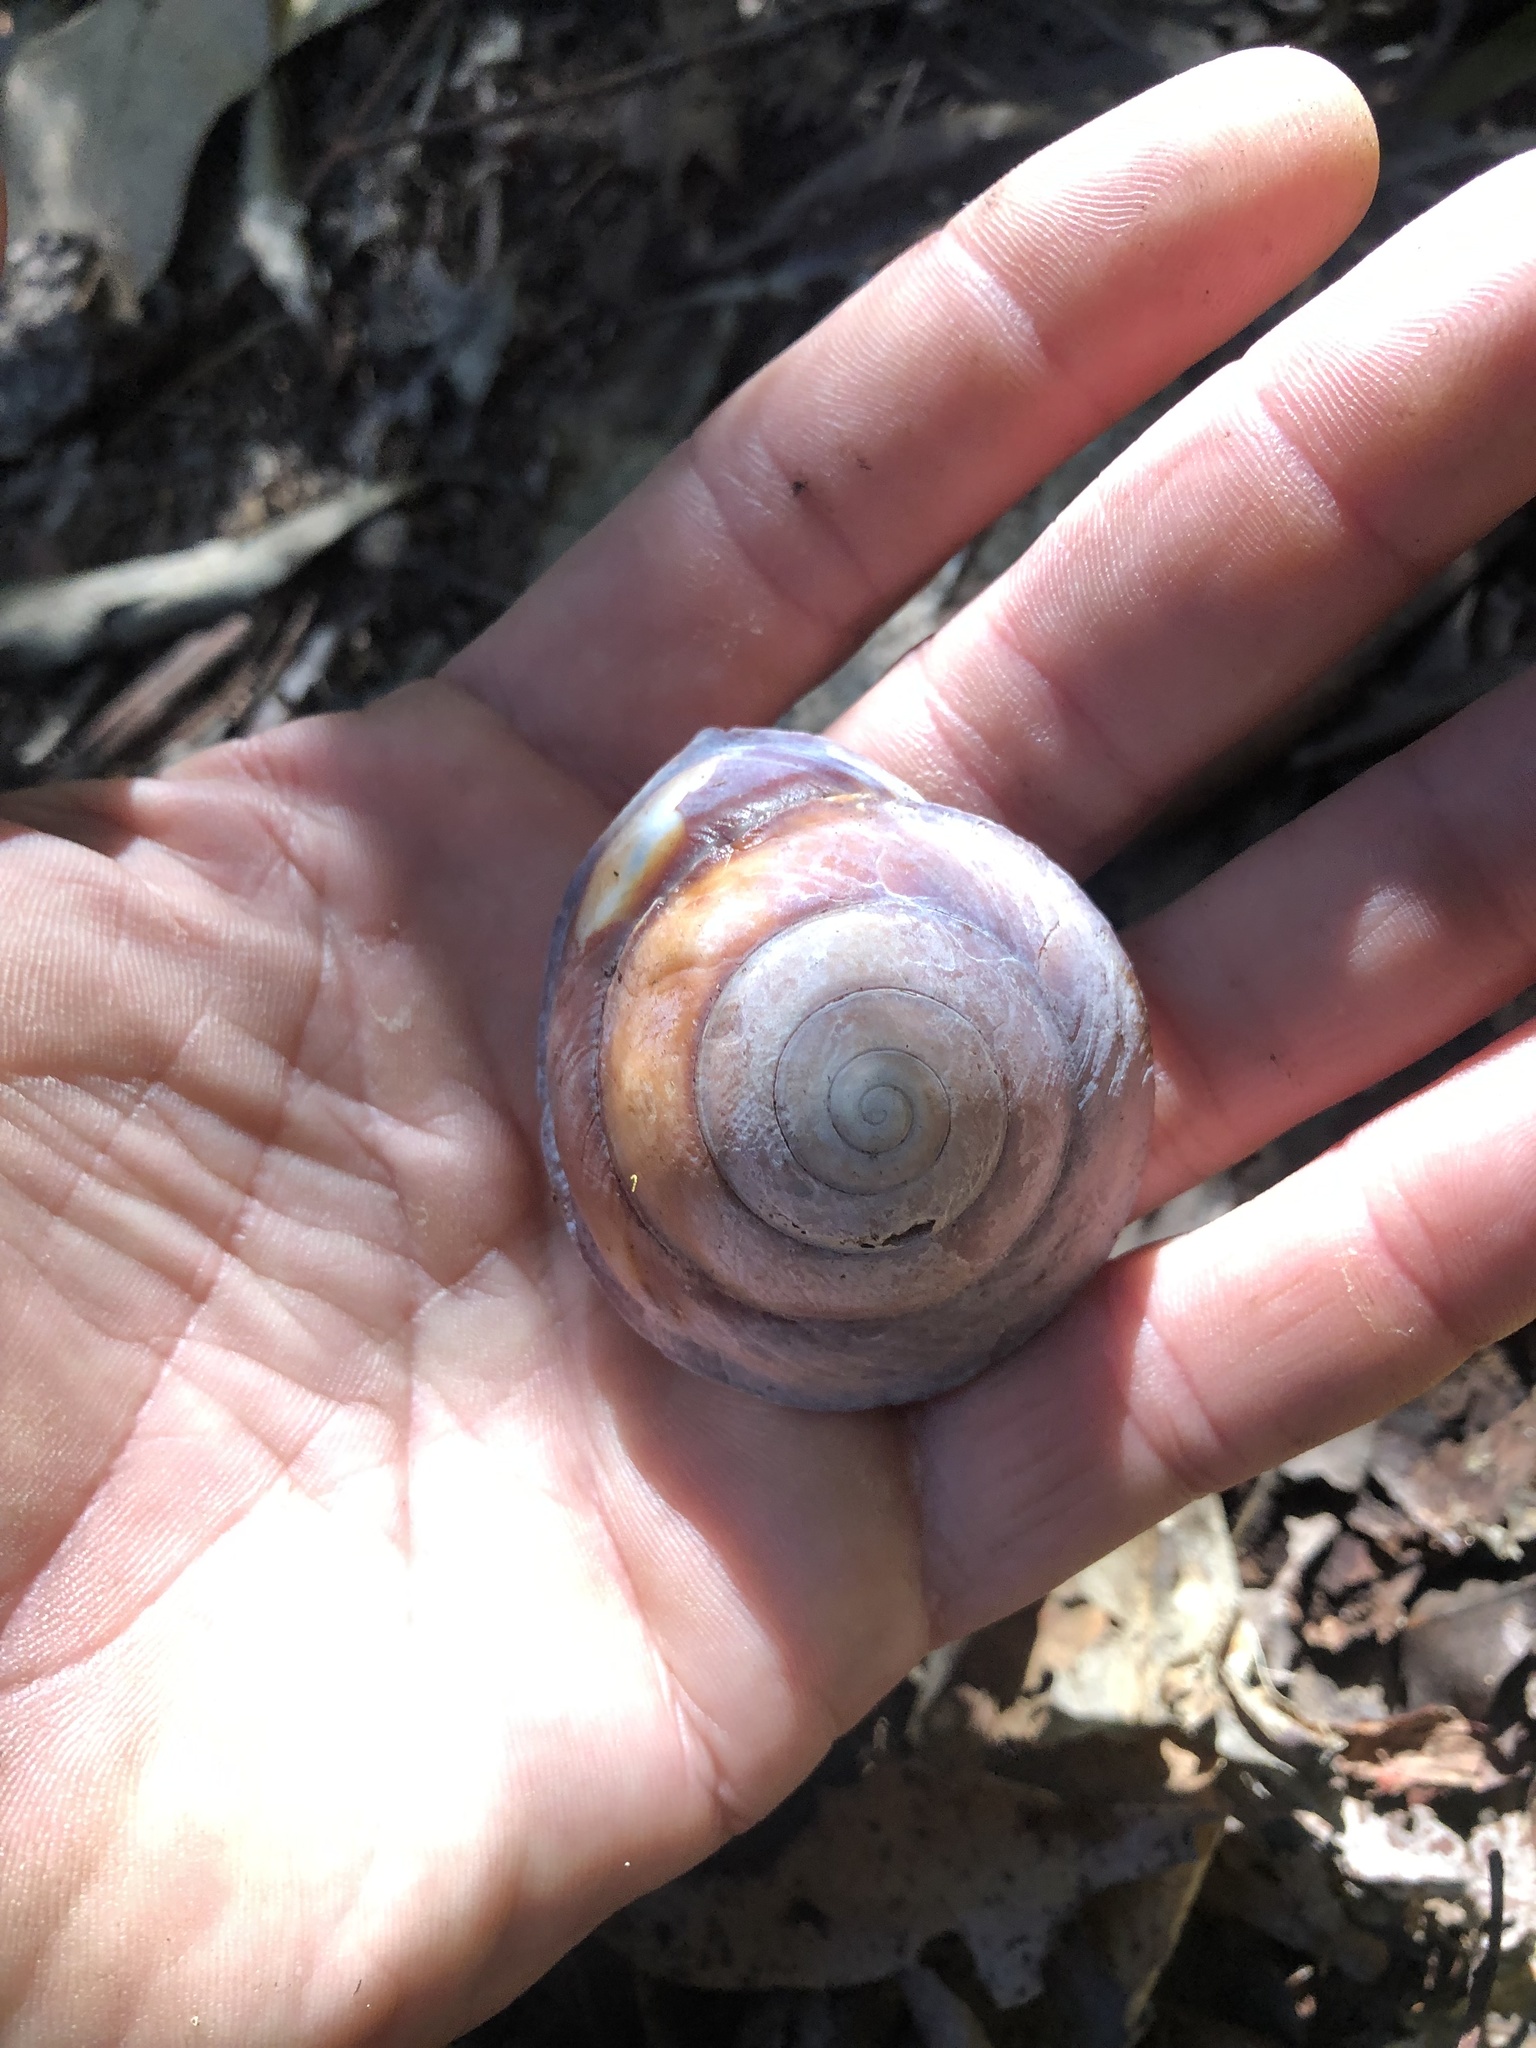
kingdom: Animalia
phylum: Mollusca
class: Gastropoda
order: Stylommatophora
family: Camaenidae
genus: Thersites
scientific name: Thersites richmondiana
